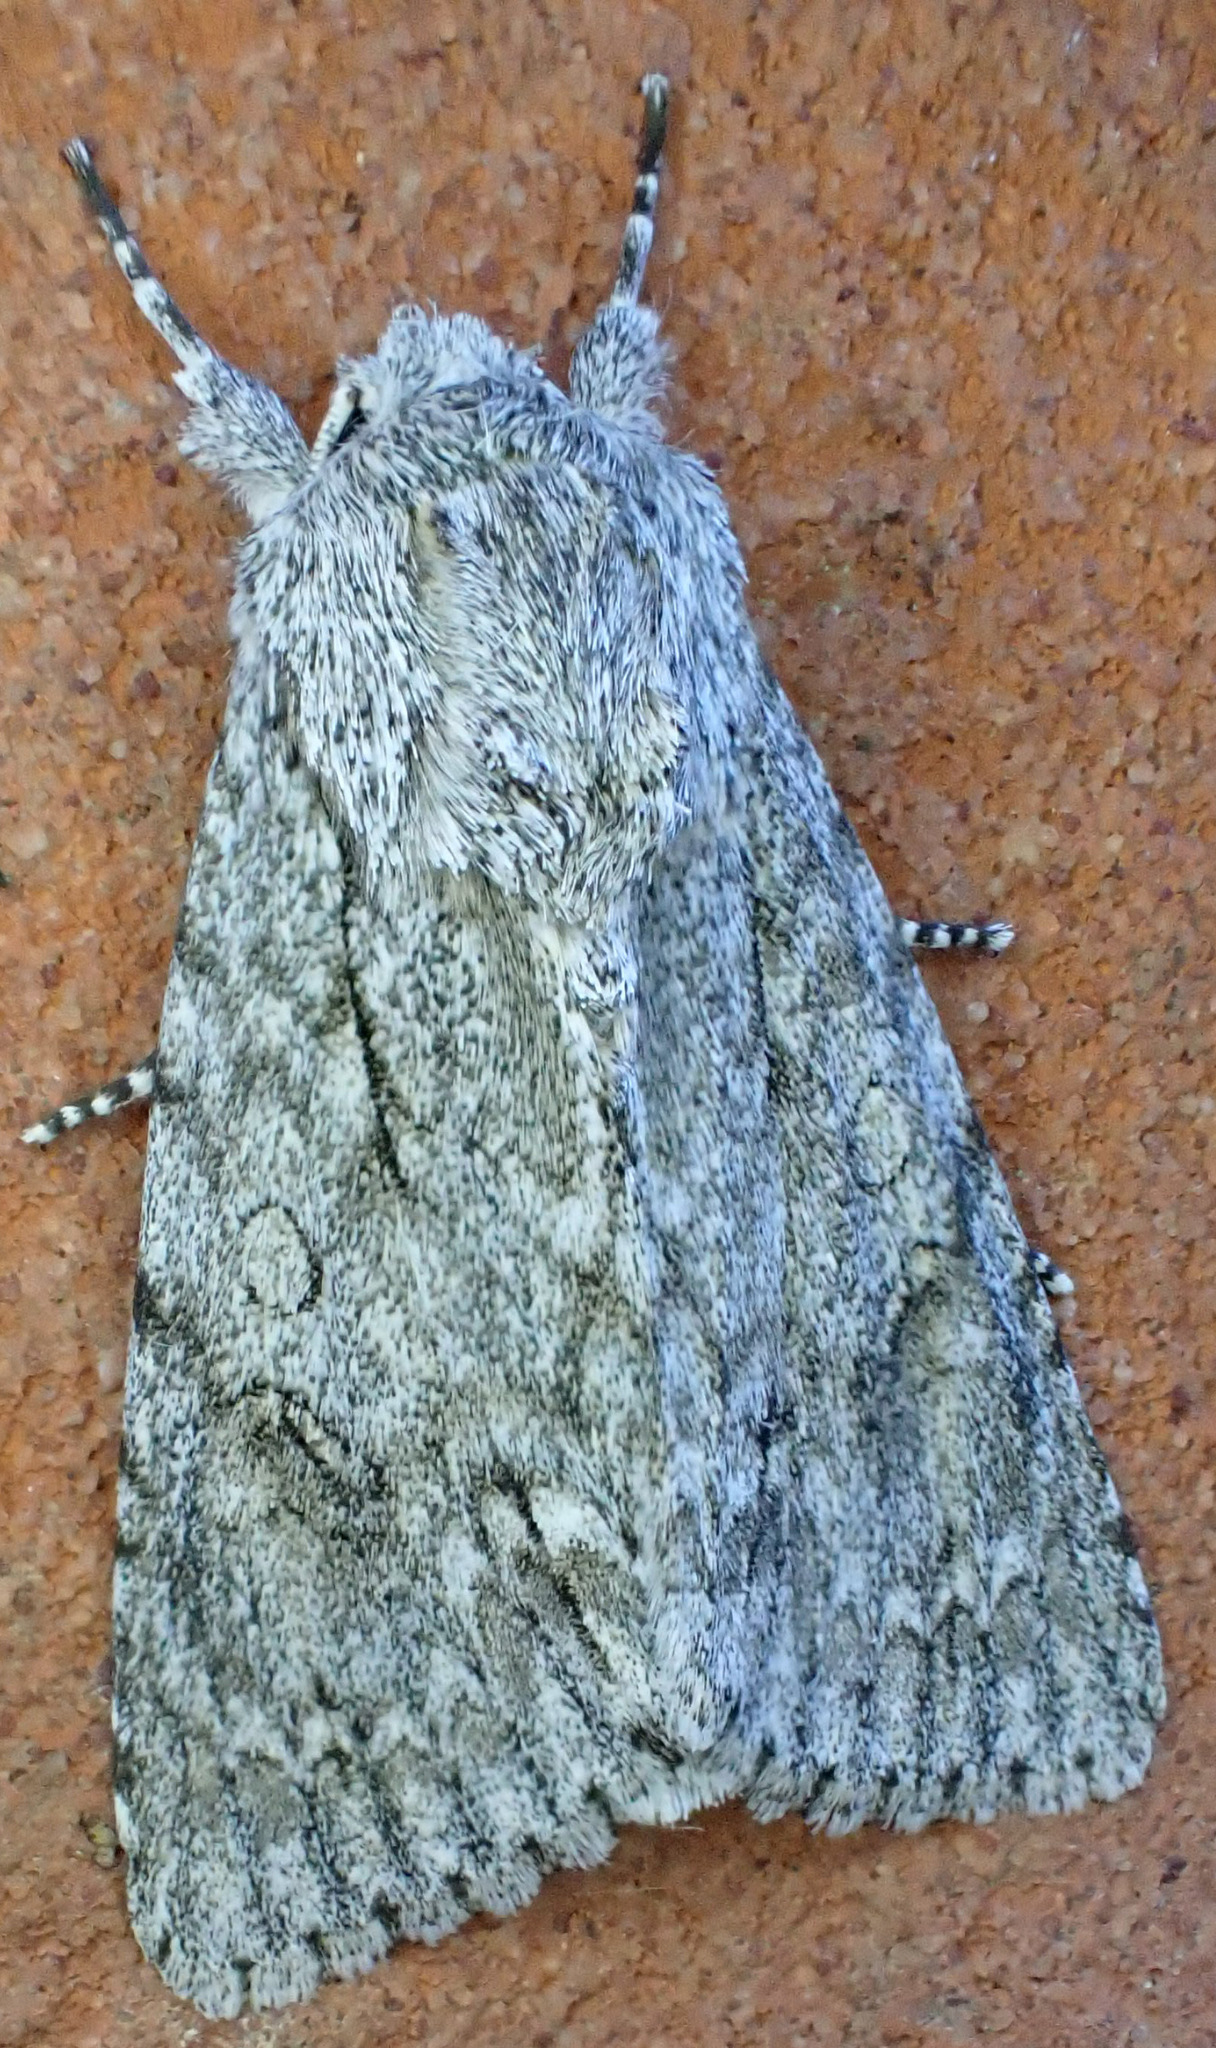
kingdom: Animalia
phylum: Arthropoda
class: Insecta
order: Lepidoptera
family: Noctuidae
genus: Acronicta
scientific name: Acronicta aceris
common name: Sycamore
